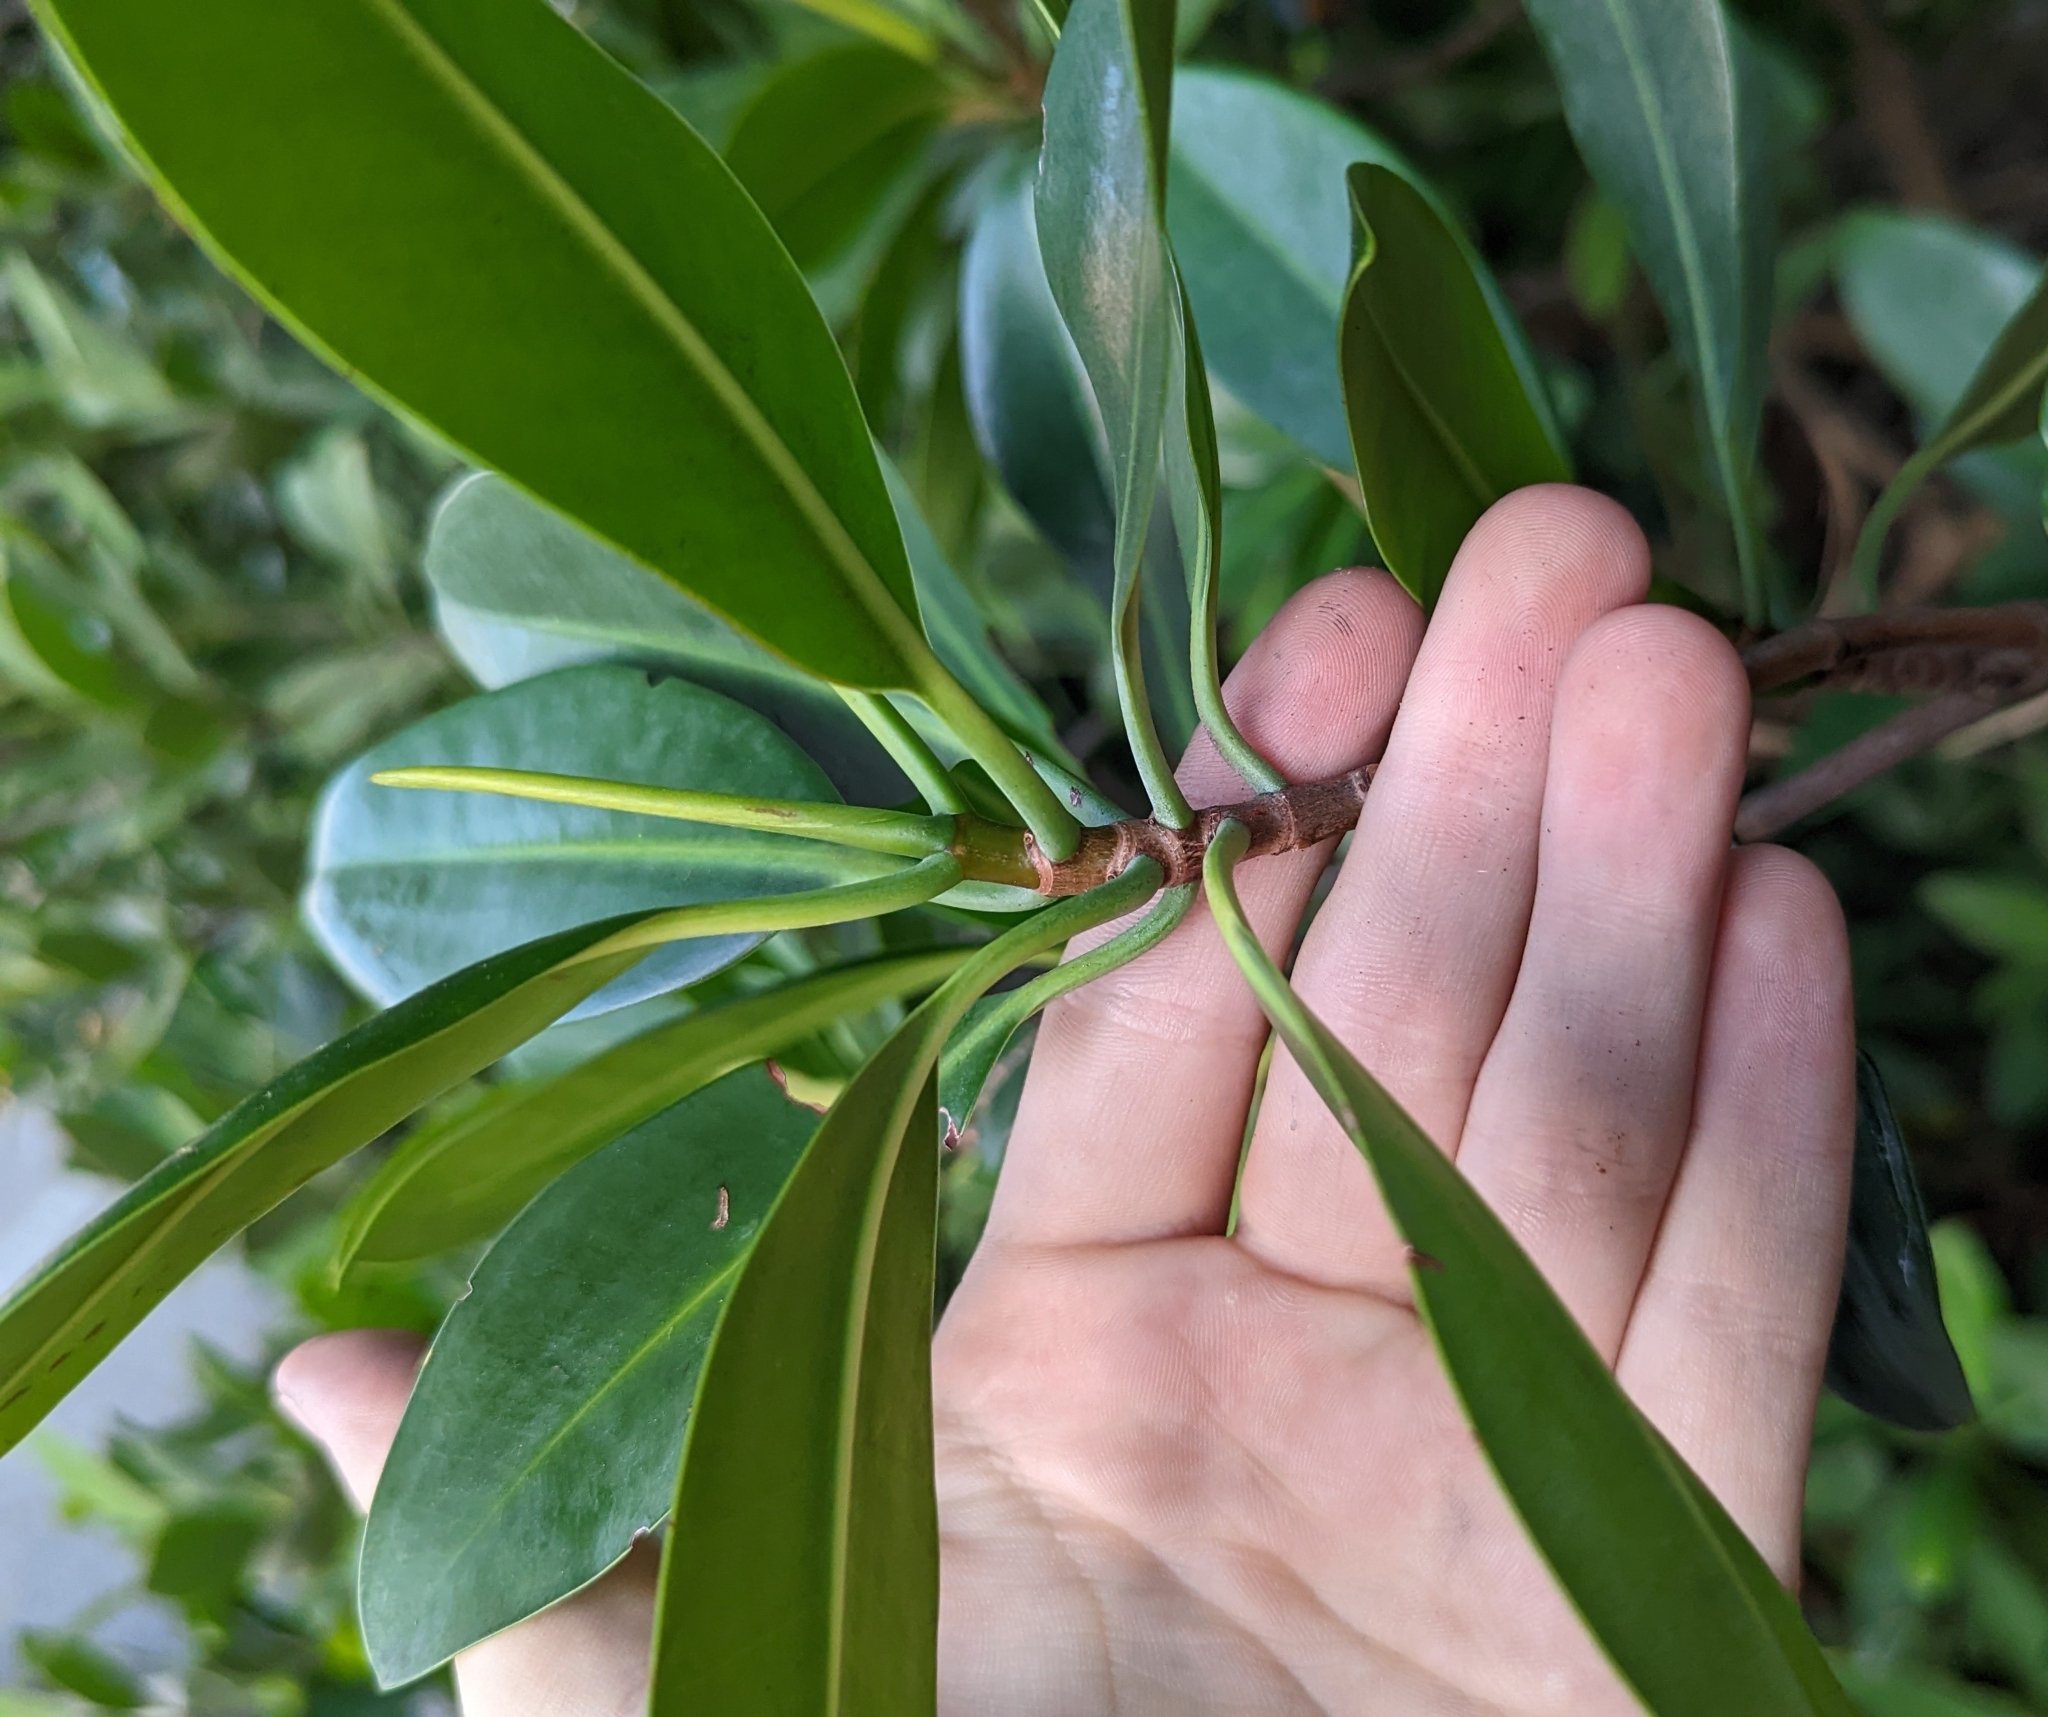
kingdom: Plantae
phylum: Tracheophyta
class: Magnoliopsida
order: Malpighiales
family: Rhizophoraceae
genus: Rhizophora
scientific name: Rhizophora mangle
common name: Red mangrove
